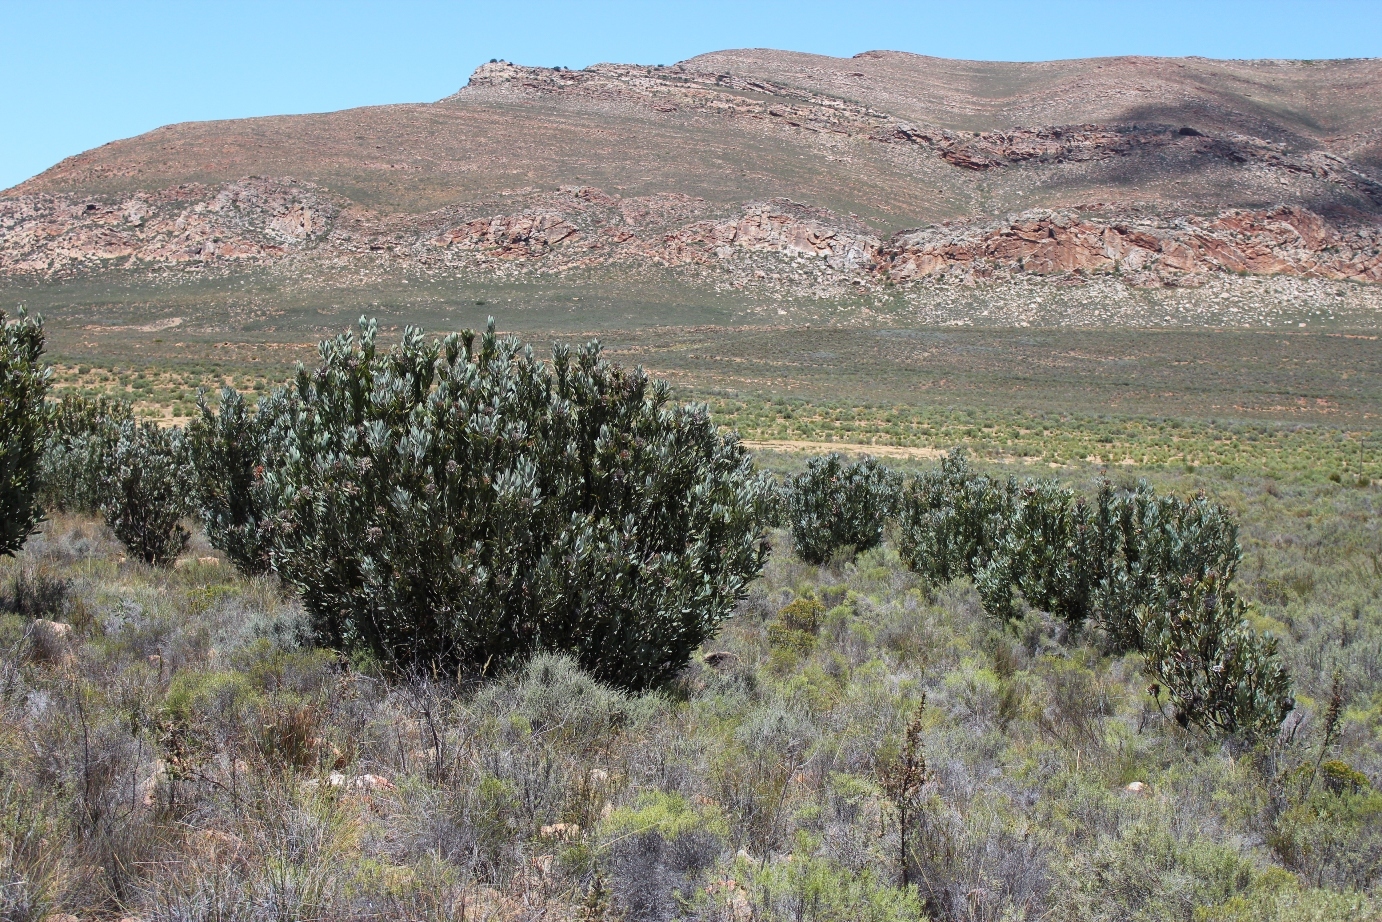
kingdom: Plantae
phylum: Tracheophyta
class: Magnoliopsida
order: Proteales
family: Proteaceae
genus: Protea
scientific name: Protea laurifolia
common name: Grey-leaf sugarbsh
